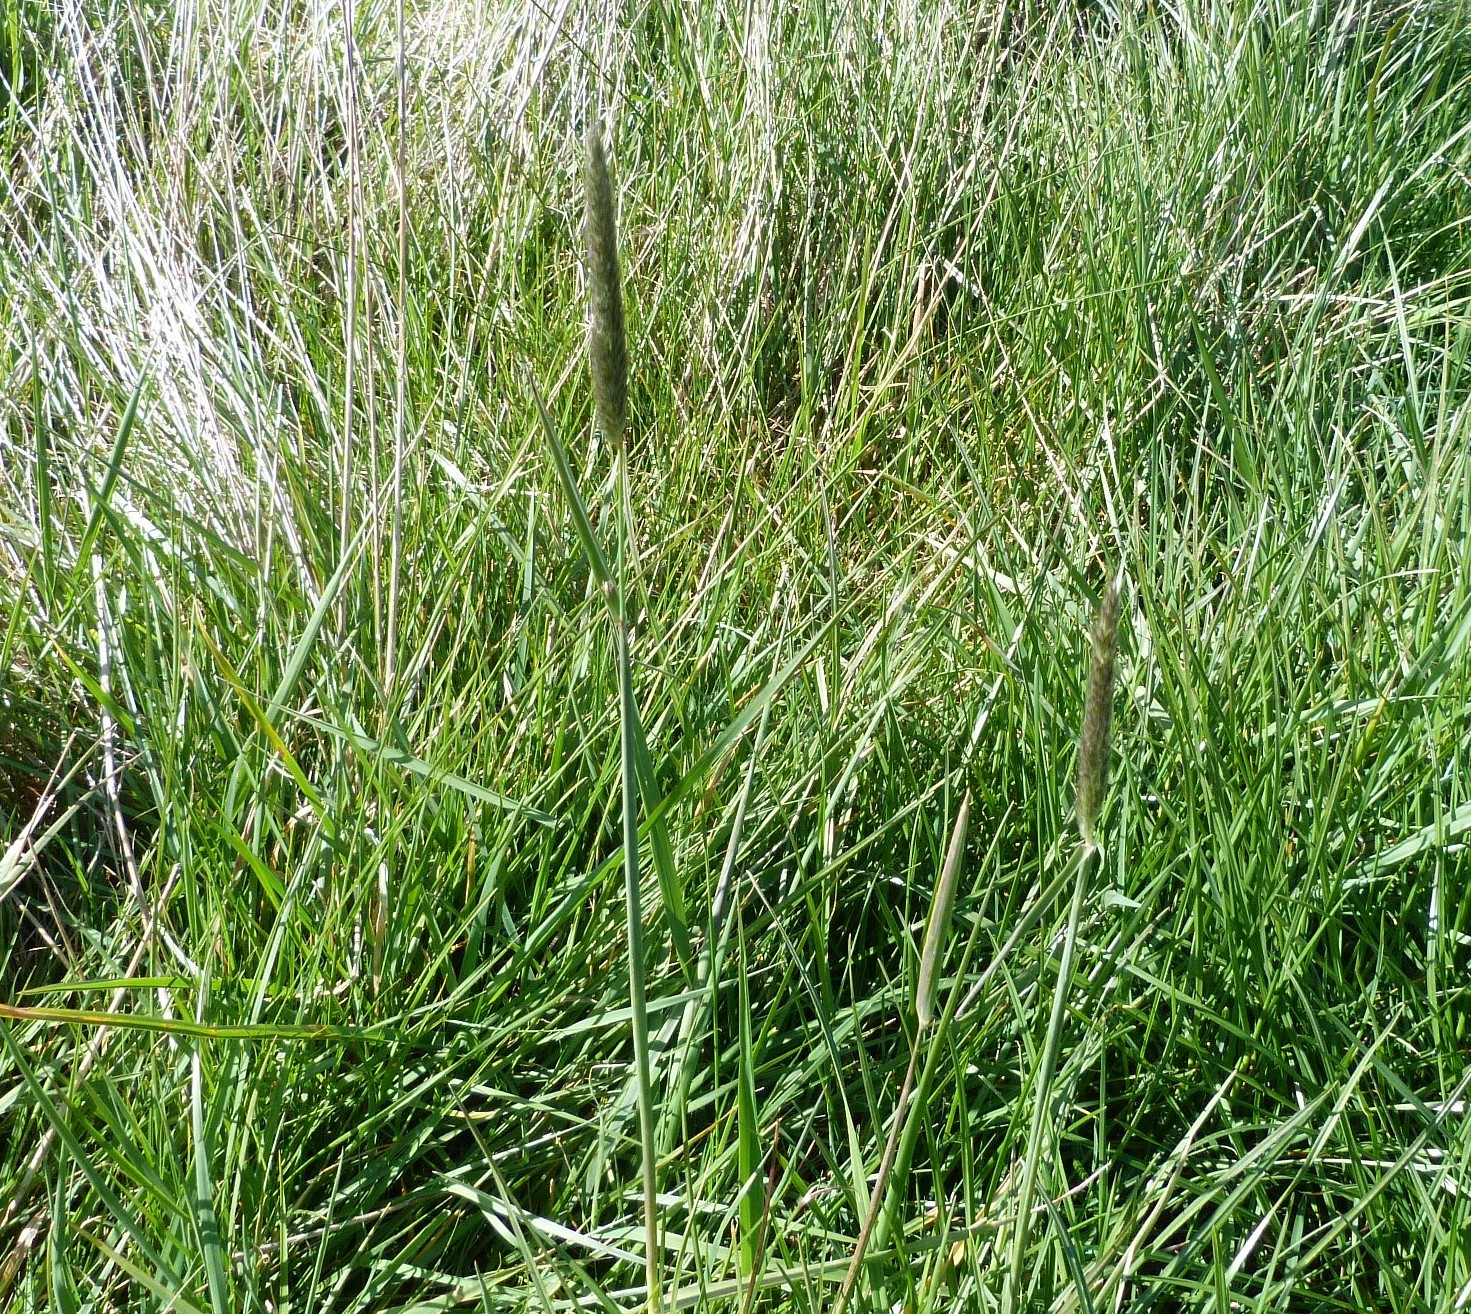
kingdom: Plantae
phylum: Tracheophyta
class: Liliopsida
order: Poales
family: Poaceae
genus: Alopecurus
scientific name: Alopecurus pratensis
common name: Meadow foxtail
